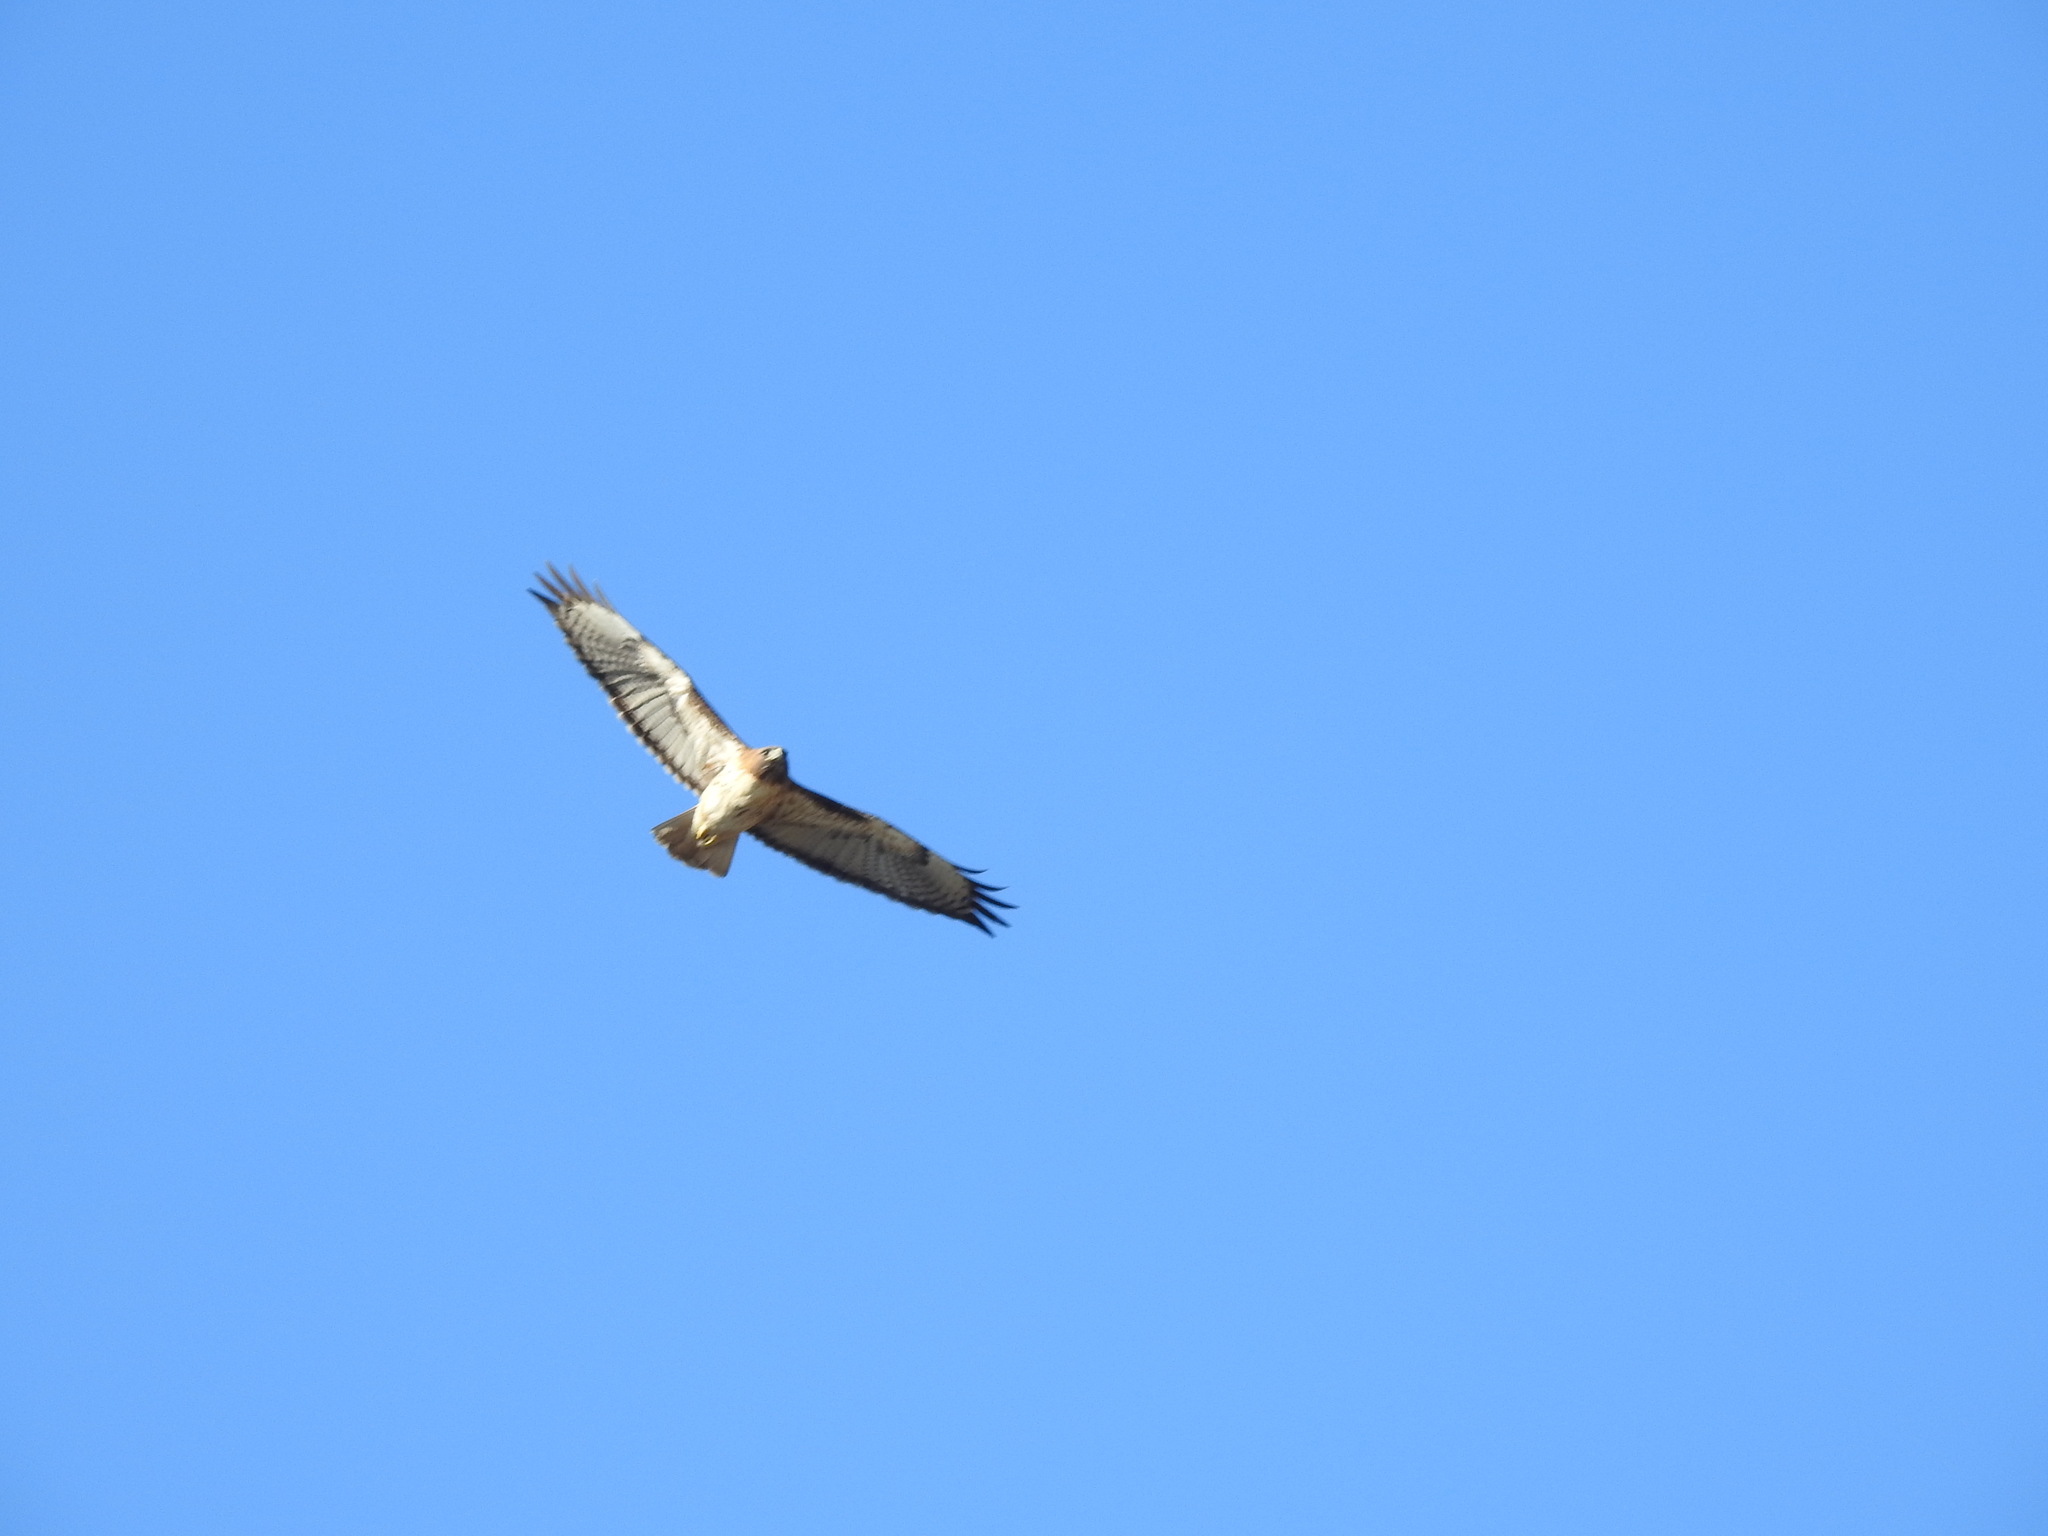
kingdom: Animalia
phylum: Chordata
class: Aves
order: Accipitriformes
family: Accipitridae
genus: Buteo
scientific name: Buteo jamaicensis
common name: Red-tailed hawk
